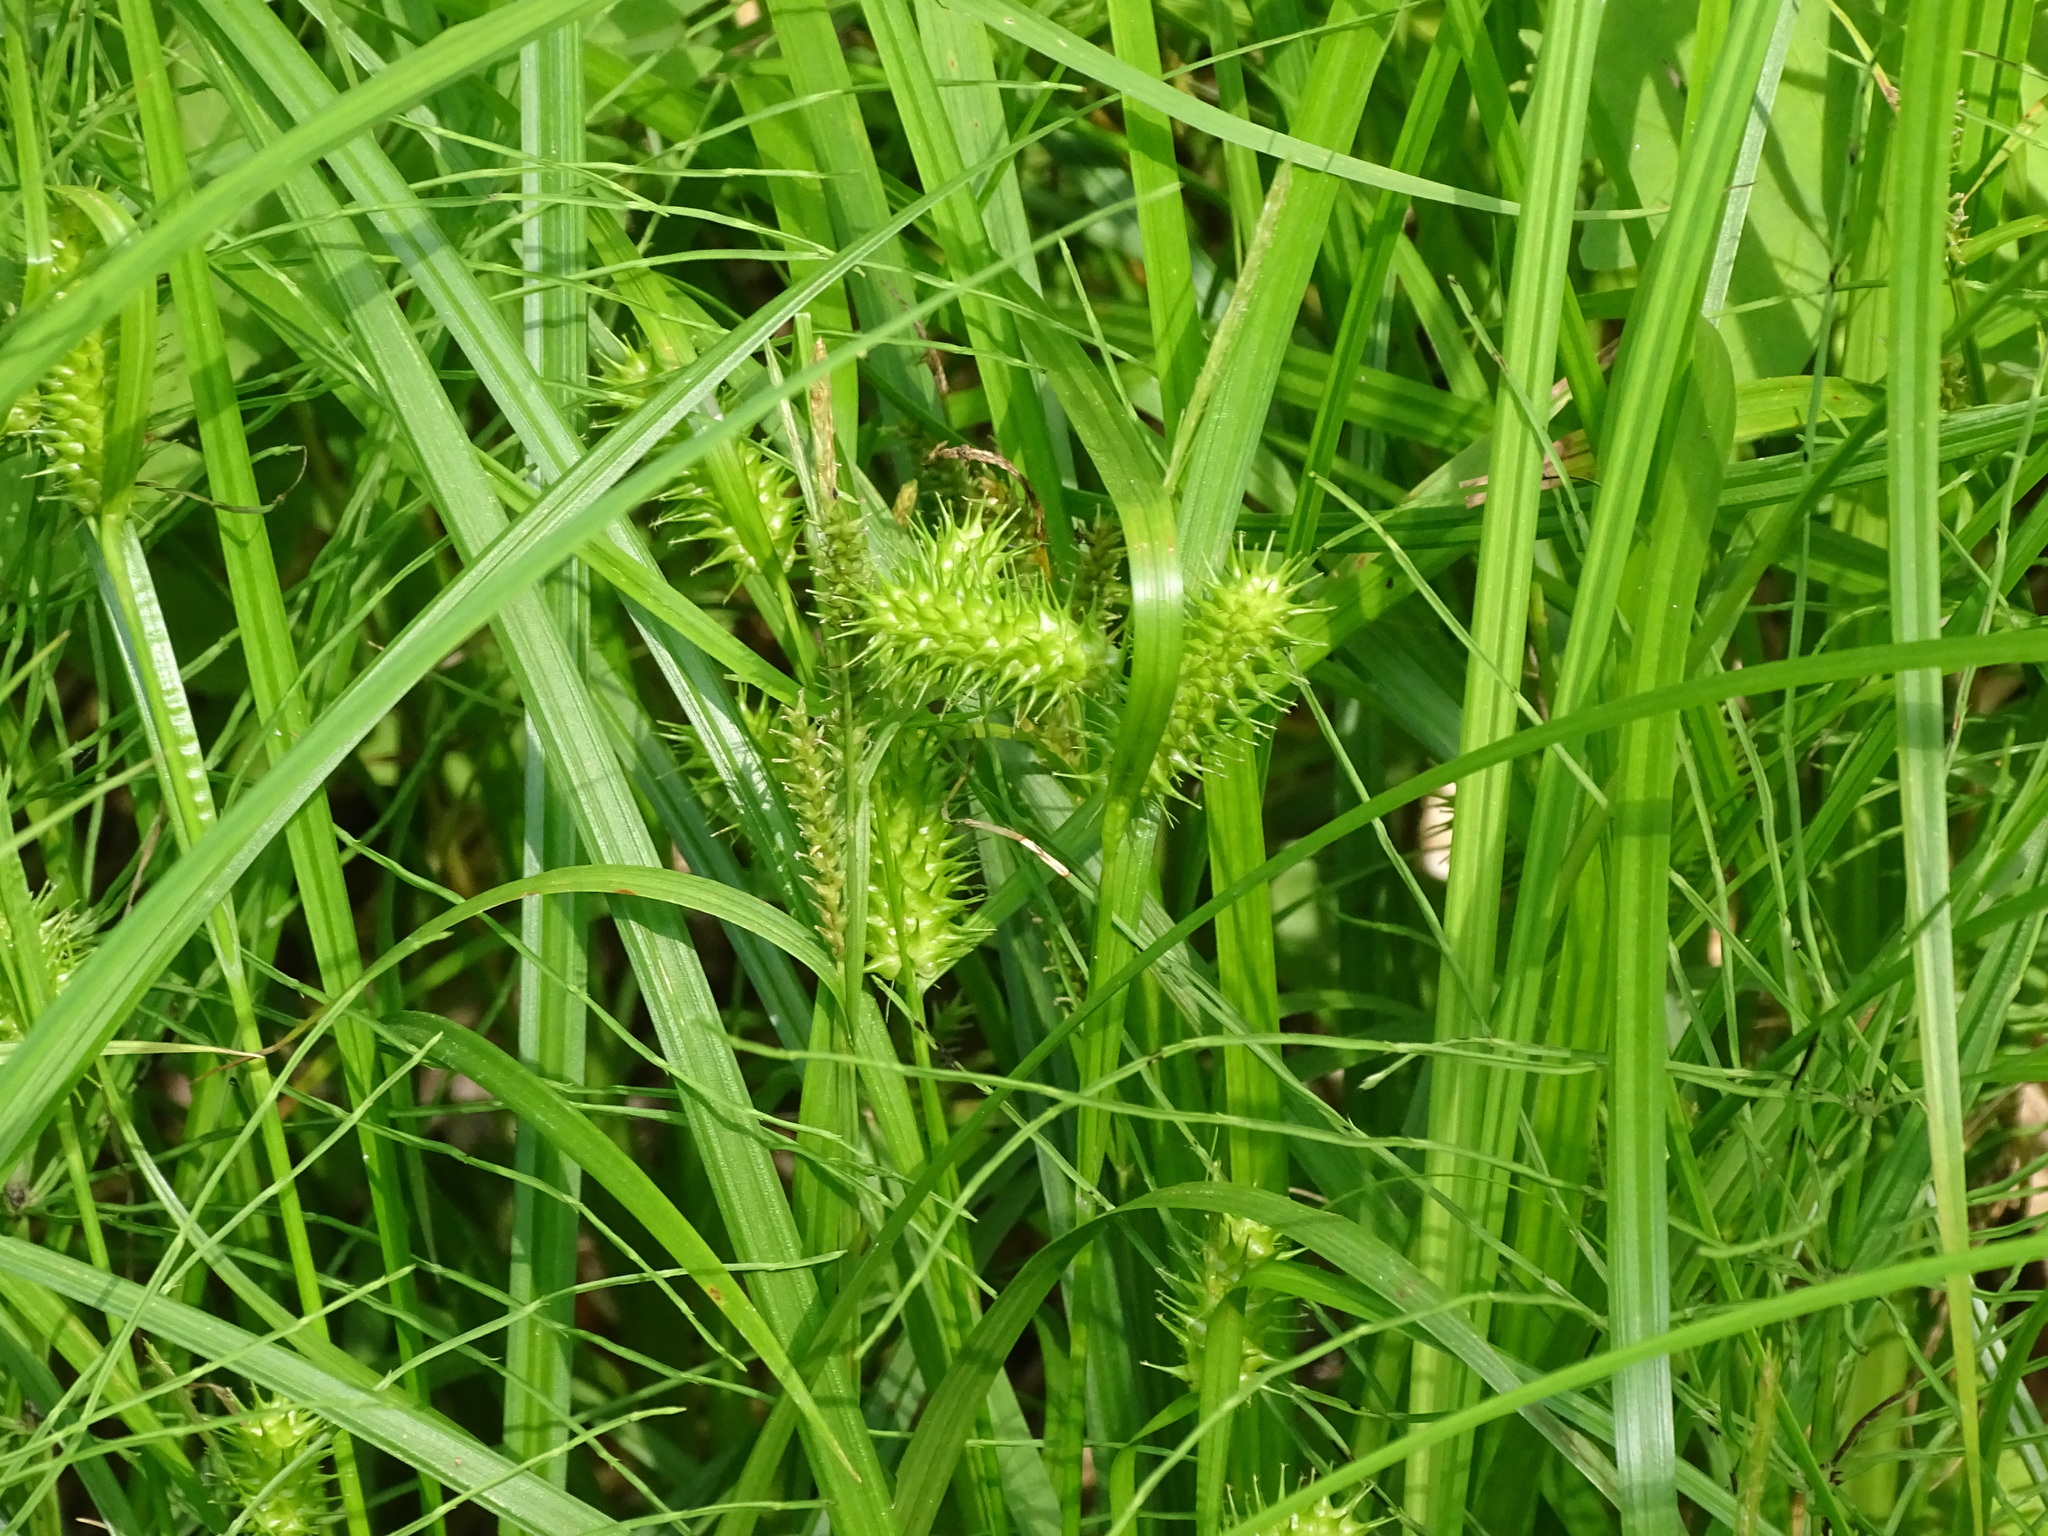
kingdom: Plantae
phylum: Tracheophyta
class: Liliopsida
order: Poales
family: Cyperaceae
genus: Carex
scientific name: Carex lurida
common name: Sallow sedge
